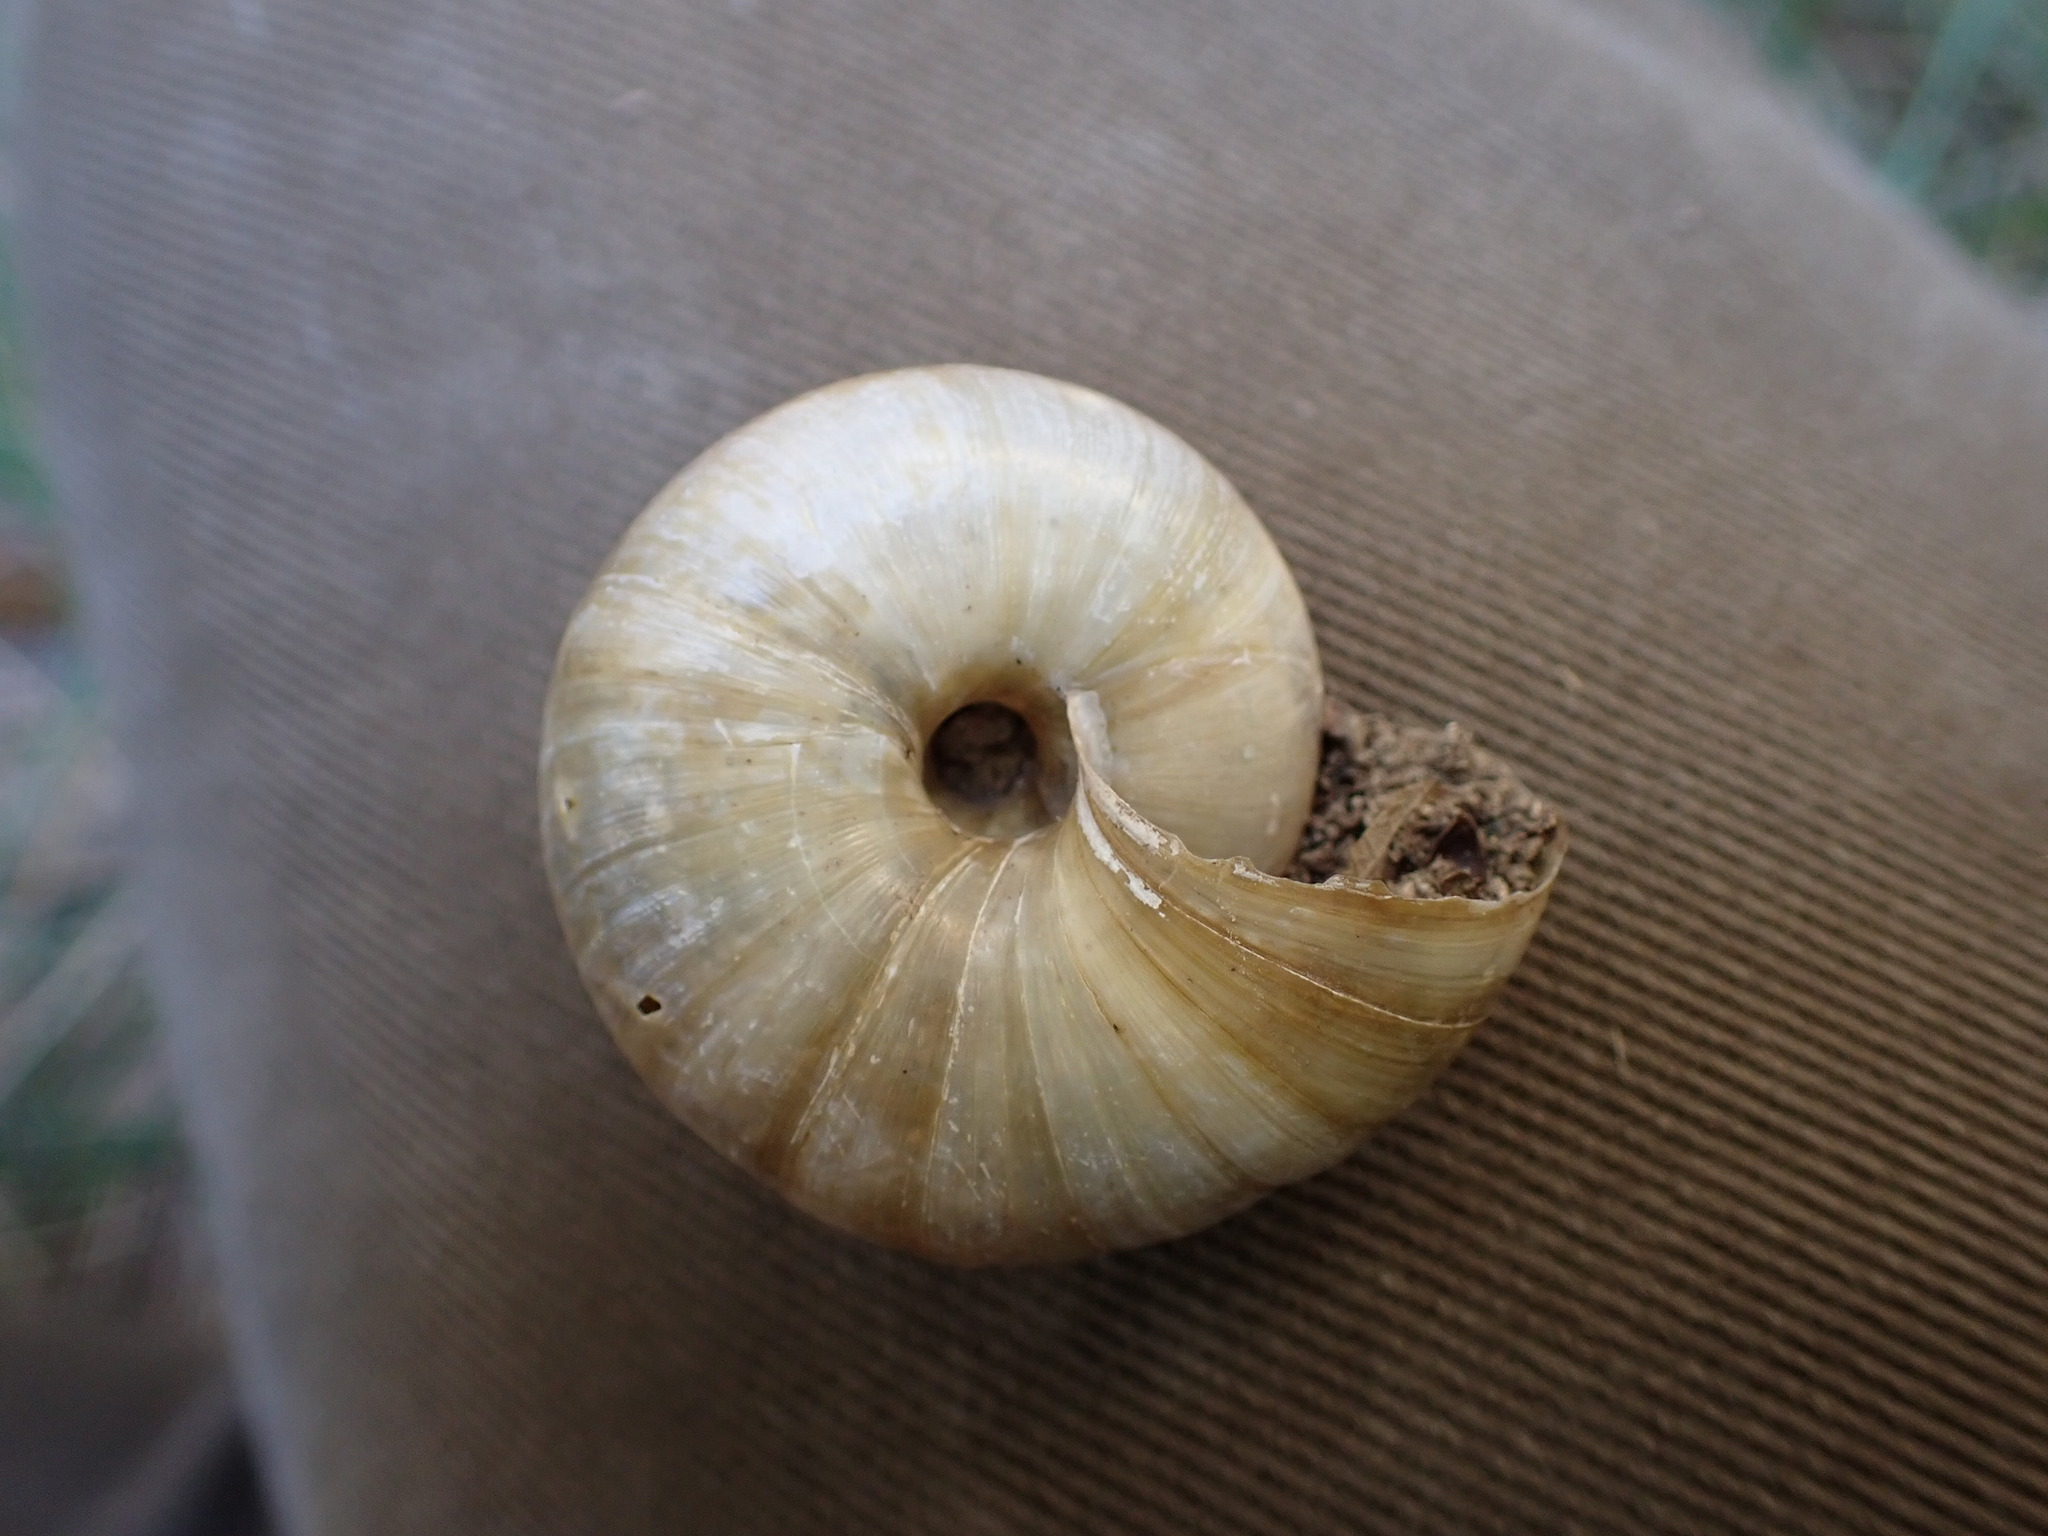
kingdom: Animalia
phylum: Mollusca
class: Gastropoda
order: Stylommatophora
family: Zonitidae
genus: Zonites
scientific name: Zonites algirus
